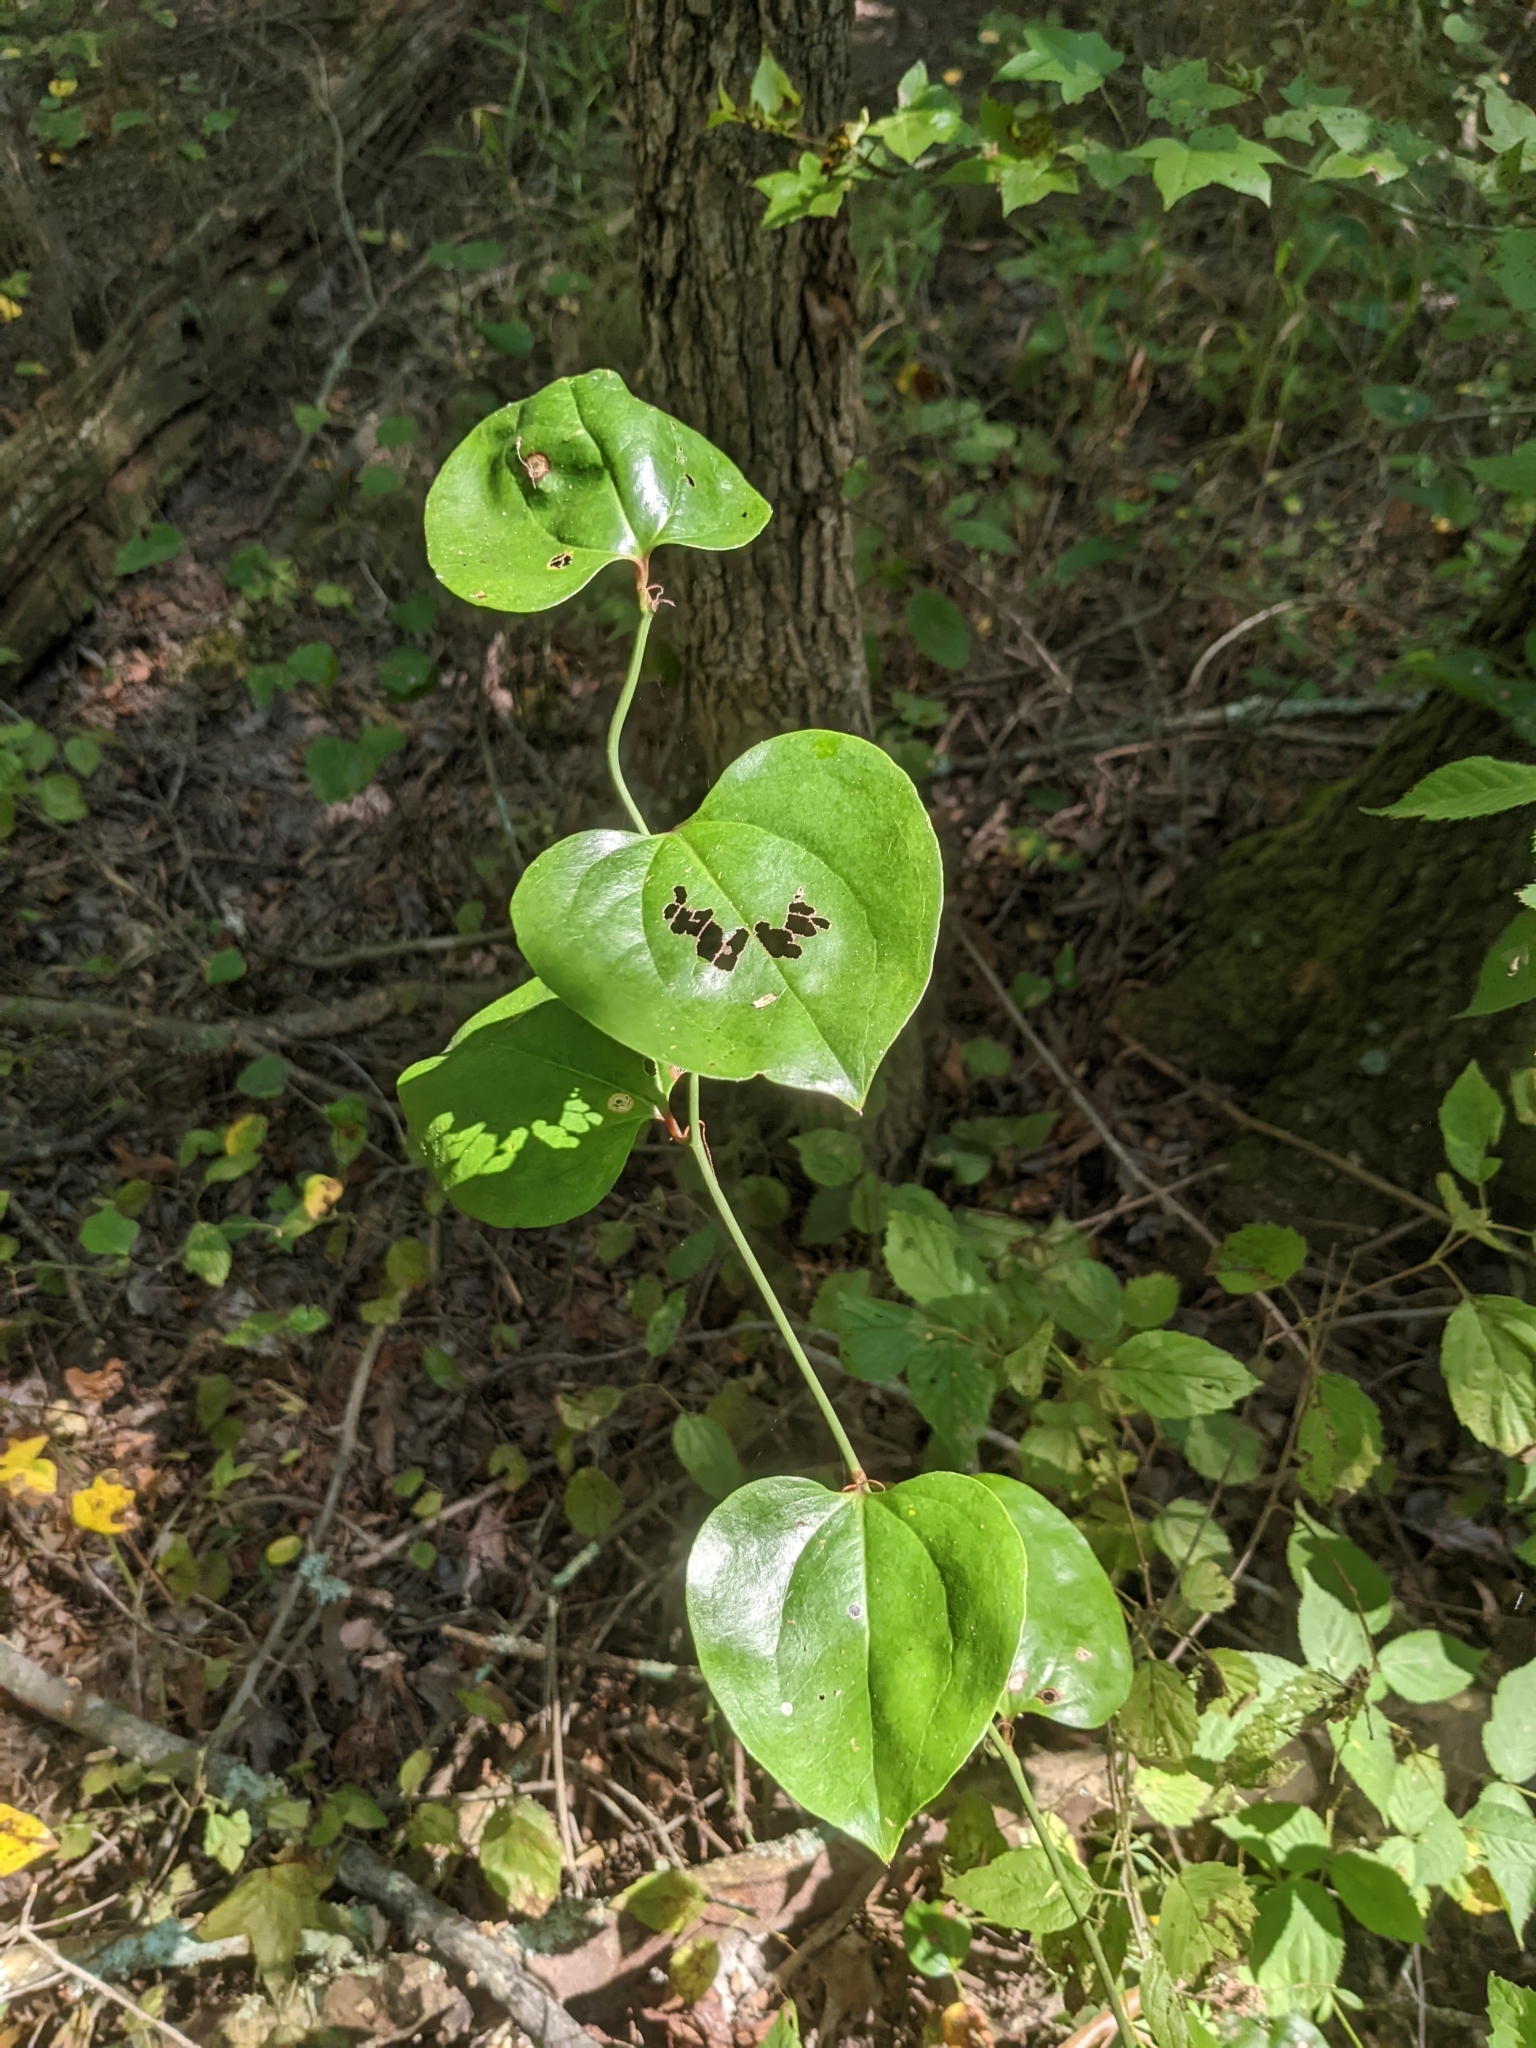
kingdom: Plantae
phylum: Tracheophyta
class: Liliopsida
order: Liliales
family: Smilacaceae
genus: Smilax
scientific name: Smilax rotundifolia
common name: Bullbriar
